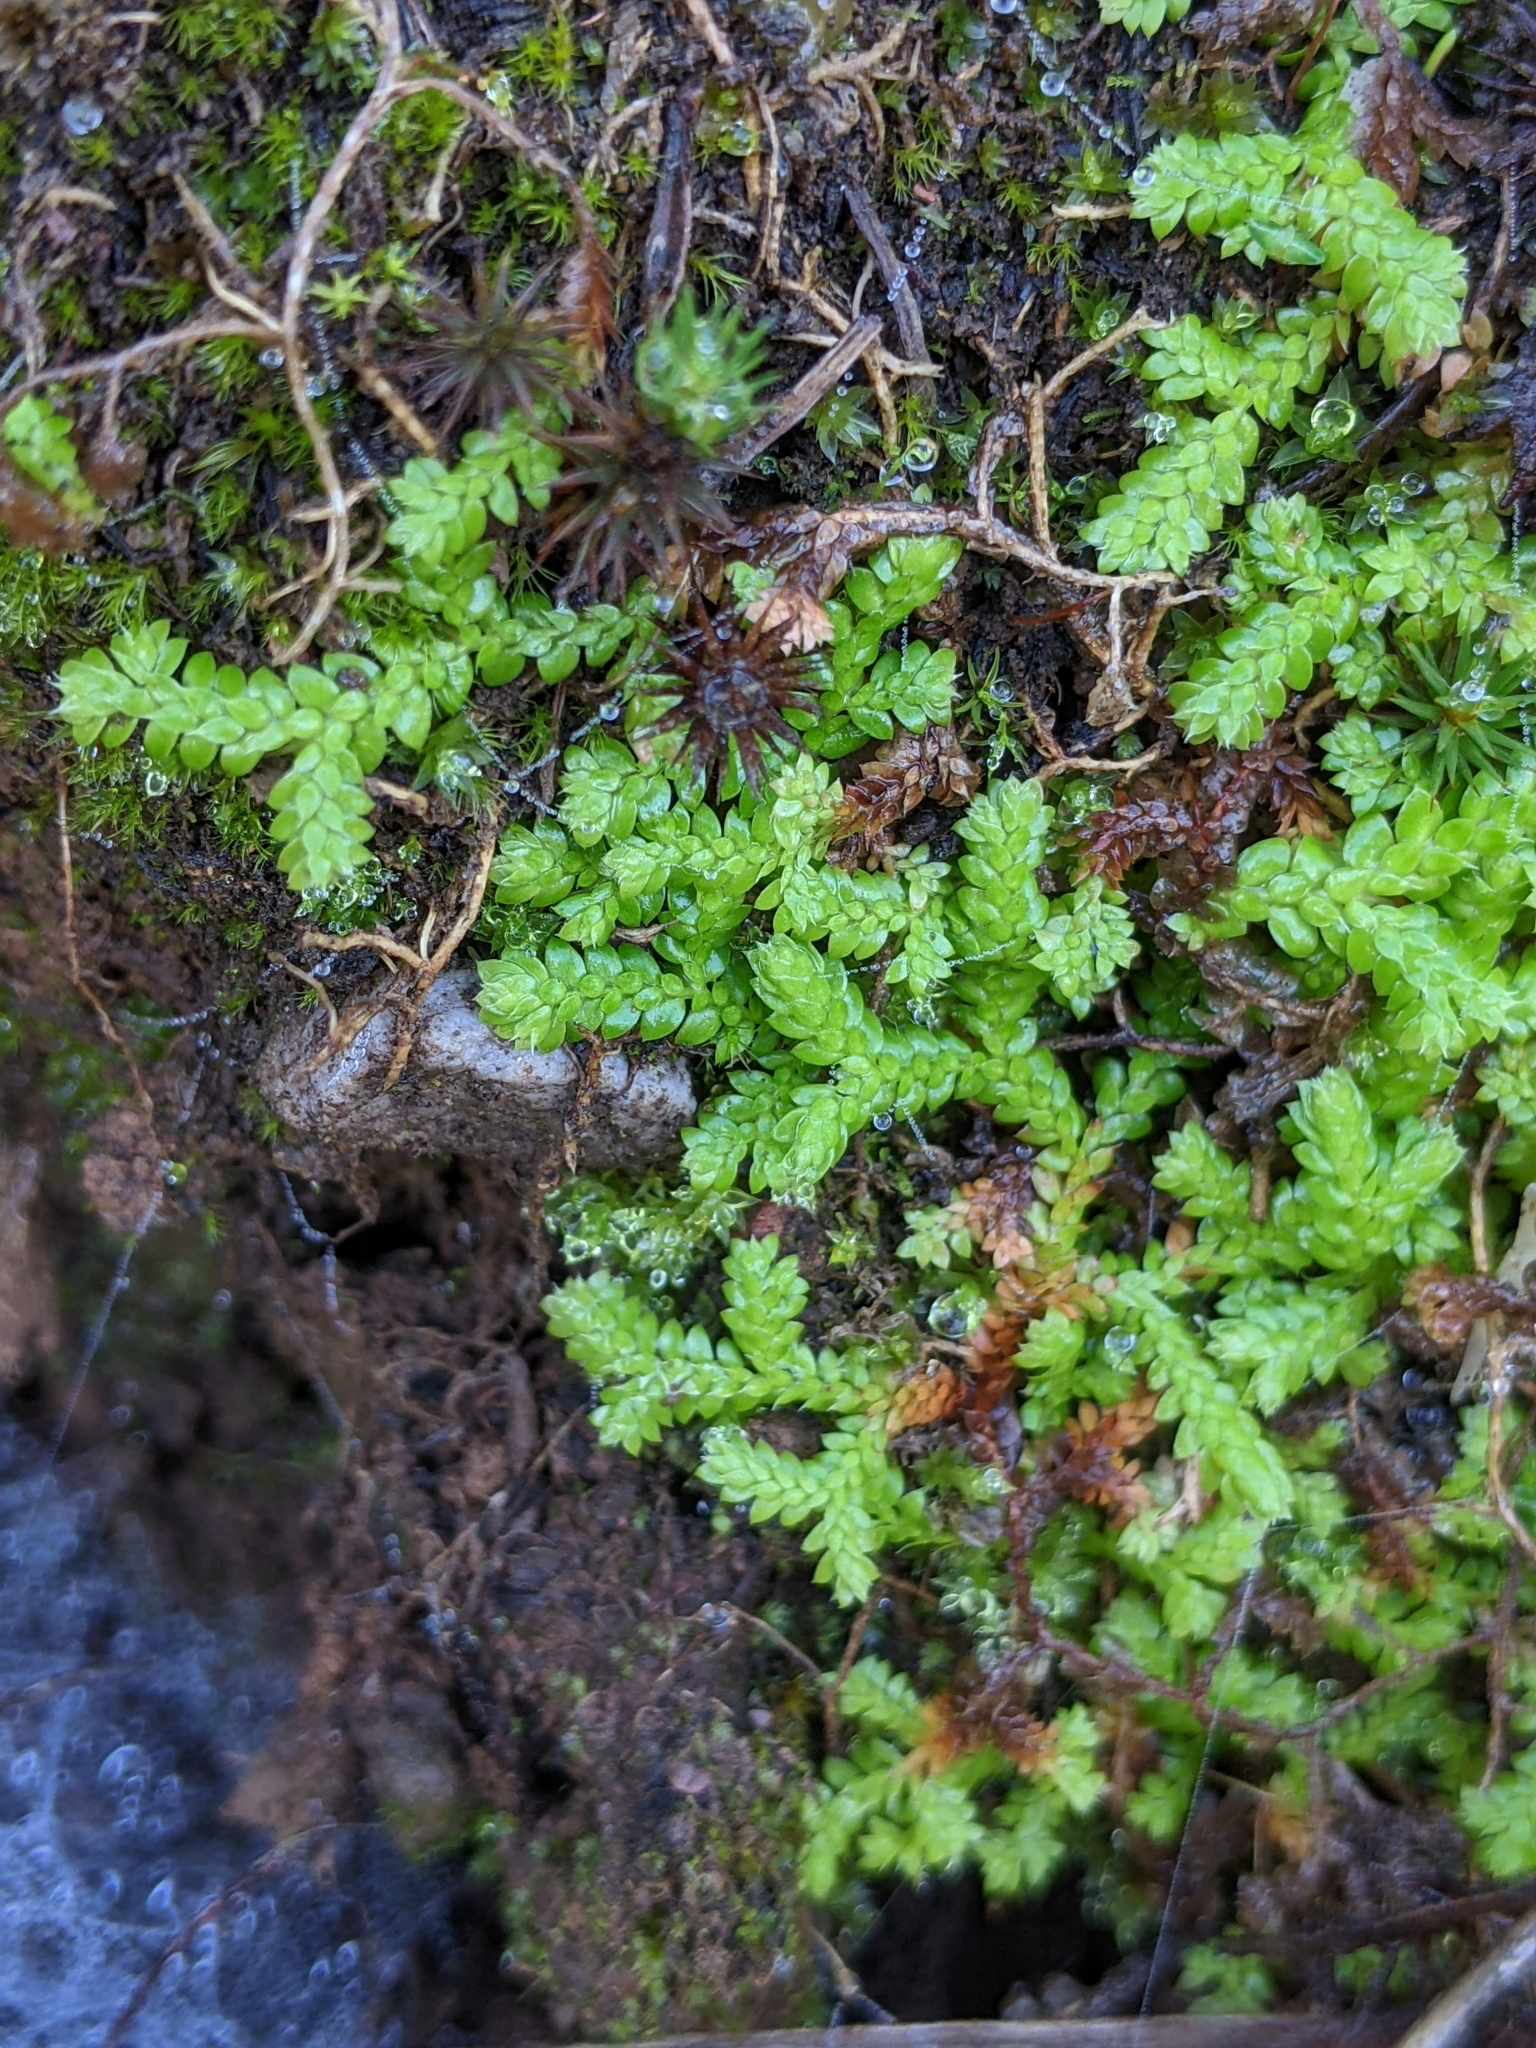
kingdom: Plantae
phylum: Tracheophyta
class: Lycopodiopsida
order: Selaginellales
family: Selaginellaceae
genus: Selaginella
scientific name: Selaginella denticulata
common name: Toothed-leaved clubmoss
